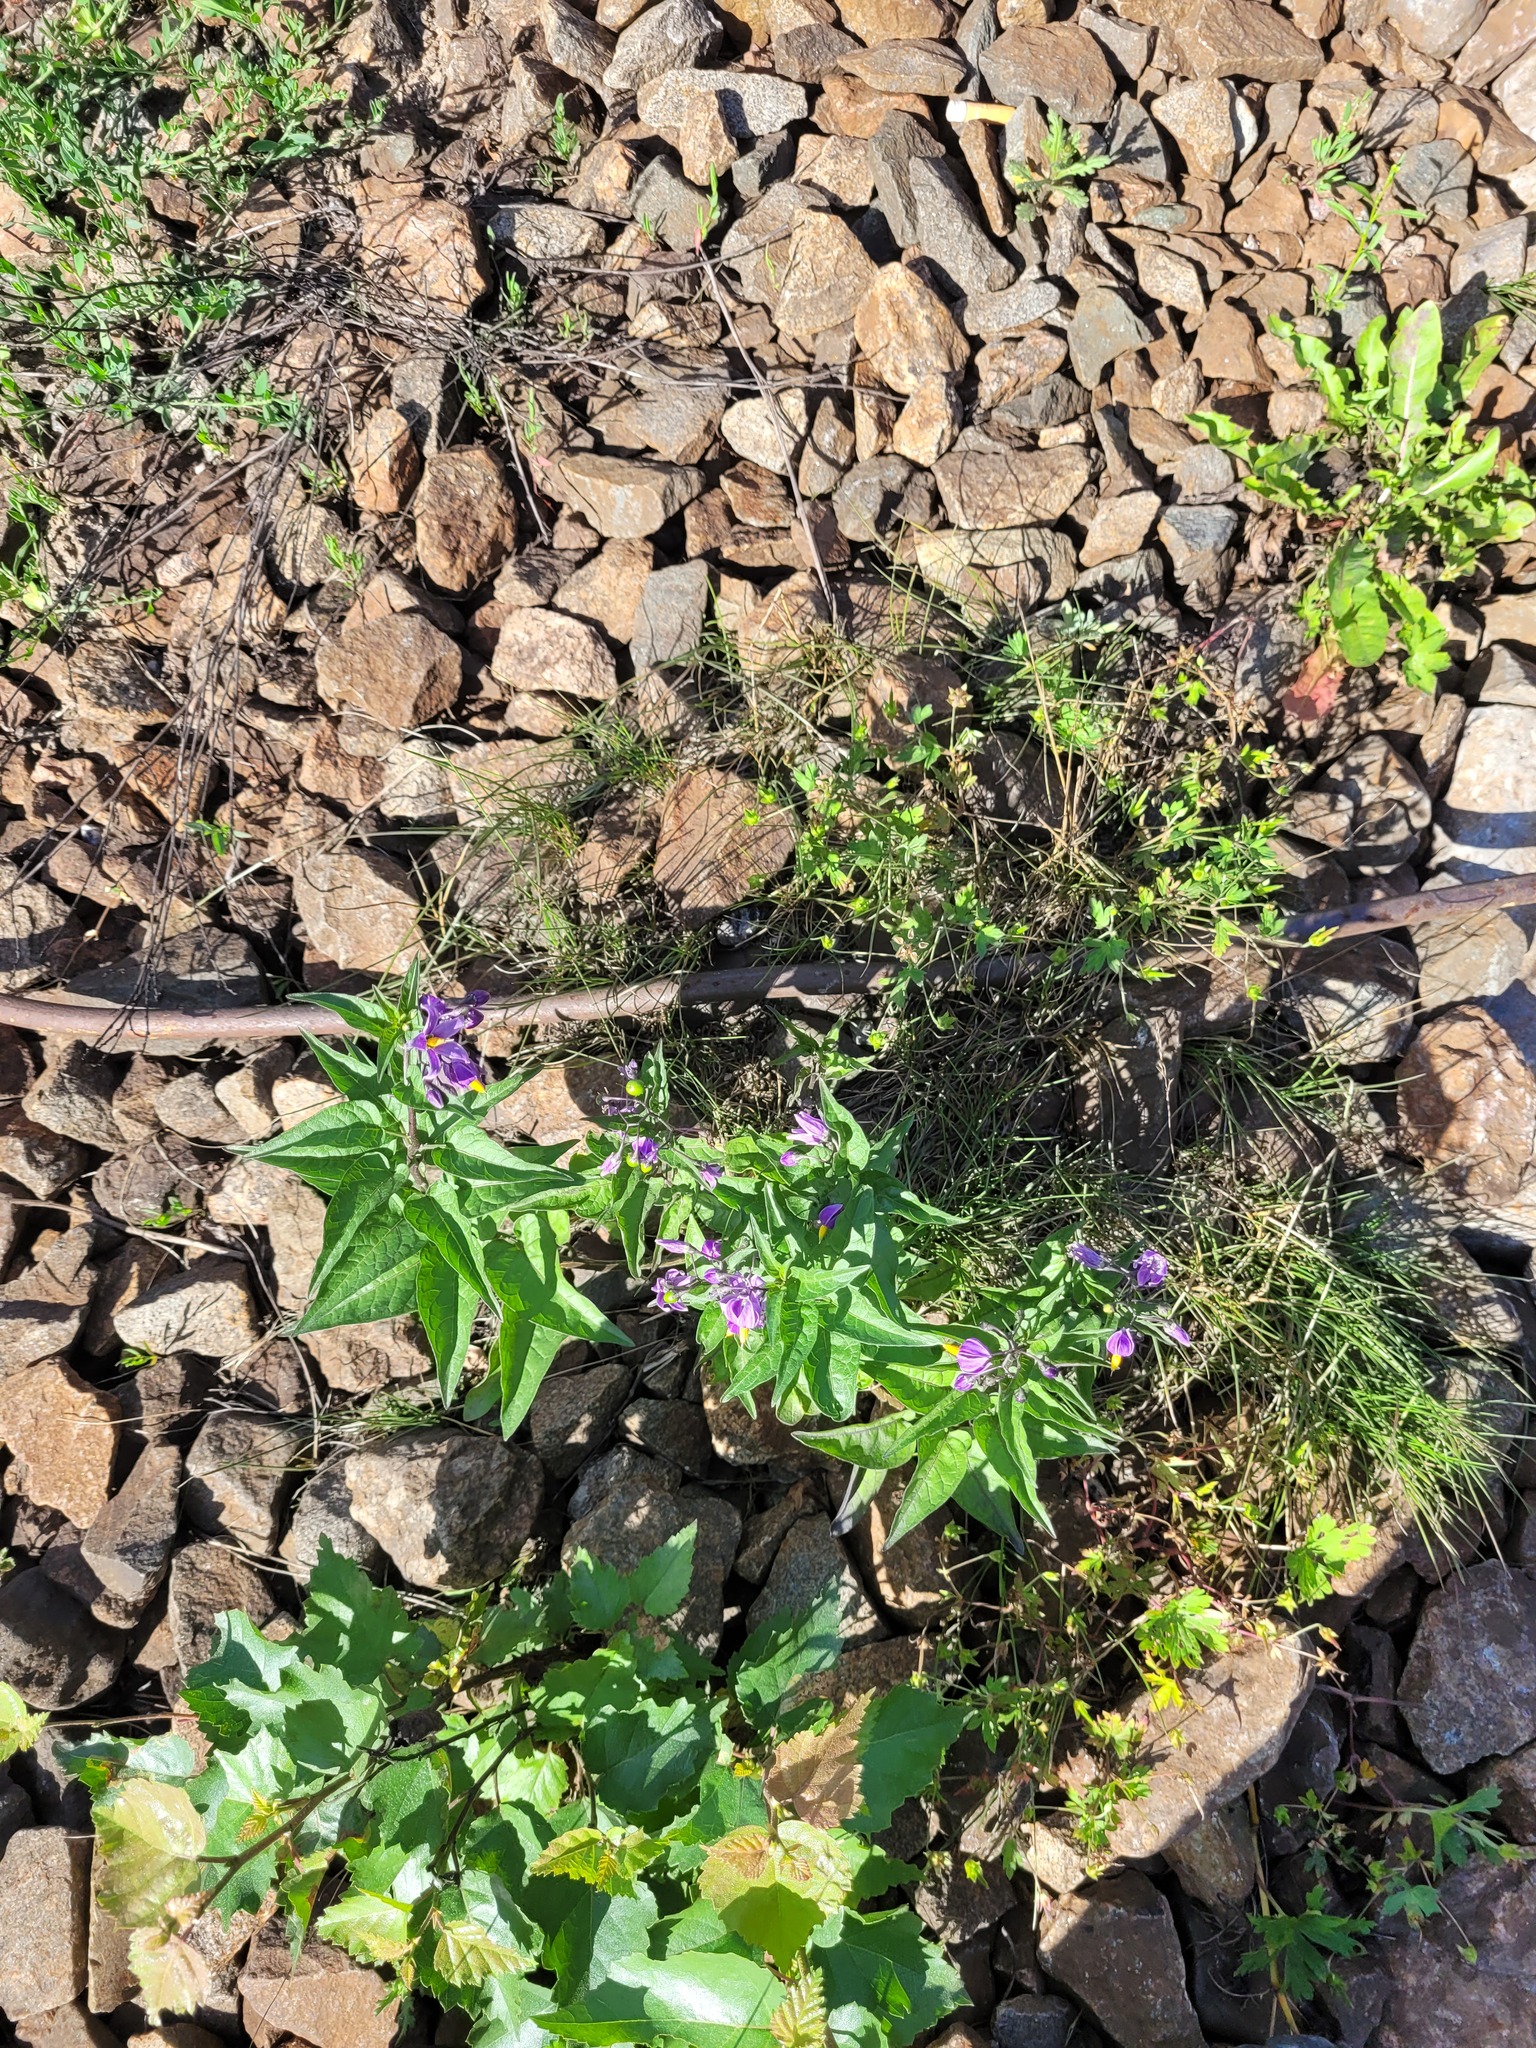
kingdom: Plantae
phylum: Tracheophyta
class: Magnoliopsida
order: Solanales
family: Solanaceae
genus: Solanum
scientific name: Solanum dulcamara
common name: Climbing nightshade
